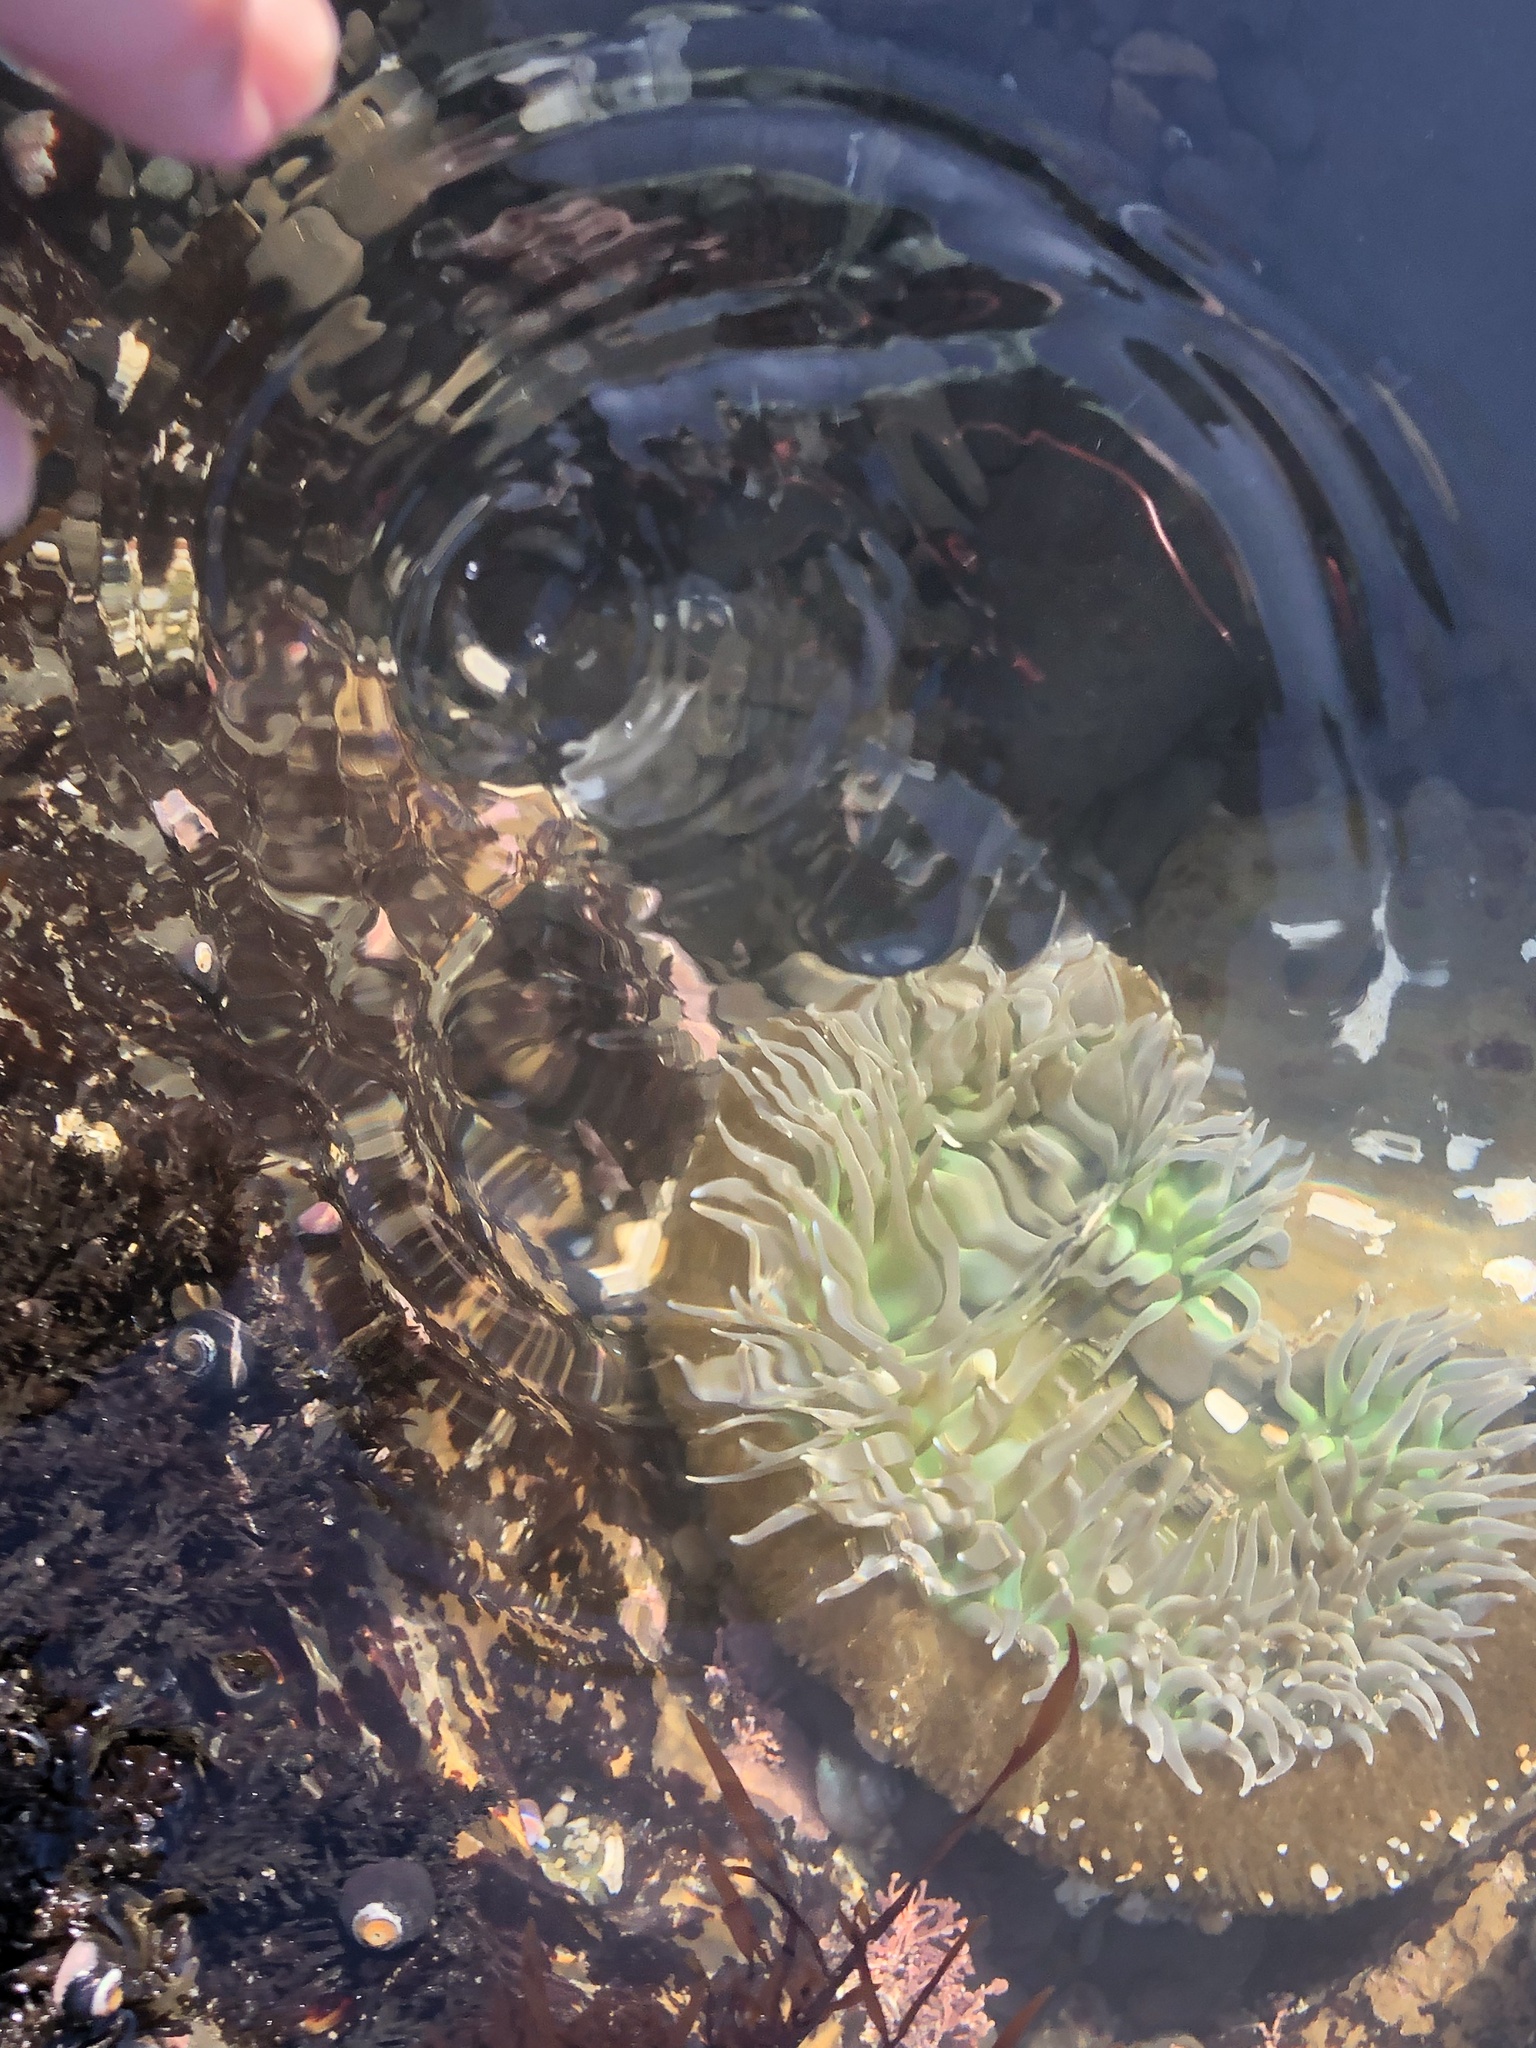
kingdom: Animalia
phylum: Cnidaria
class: Anthozoa
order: Actiniaria
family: Actiniidae
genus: Anthopleura
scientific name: Anthopleura xanthogrammica
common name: Giant green anemone
